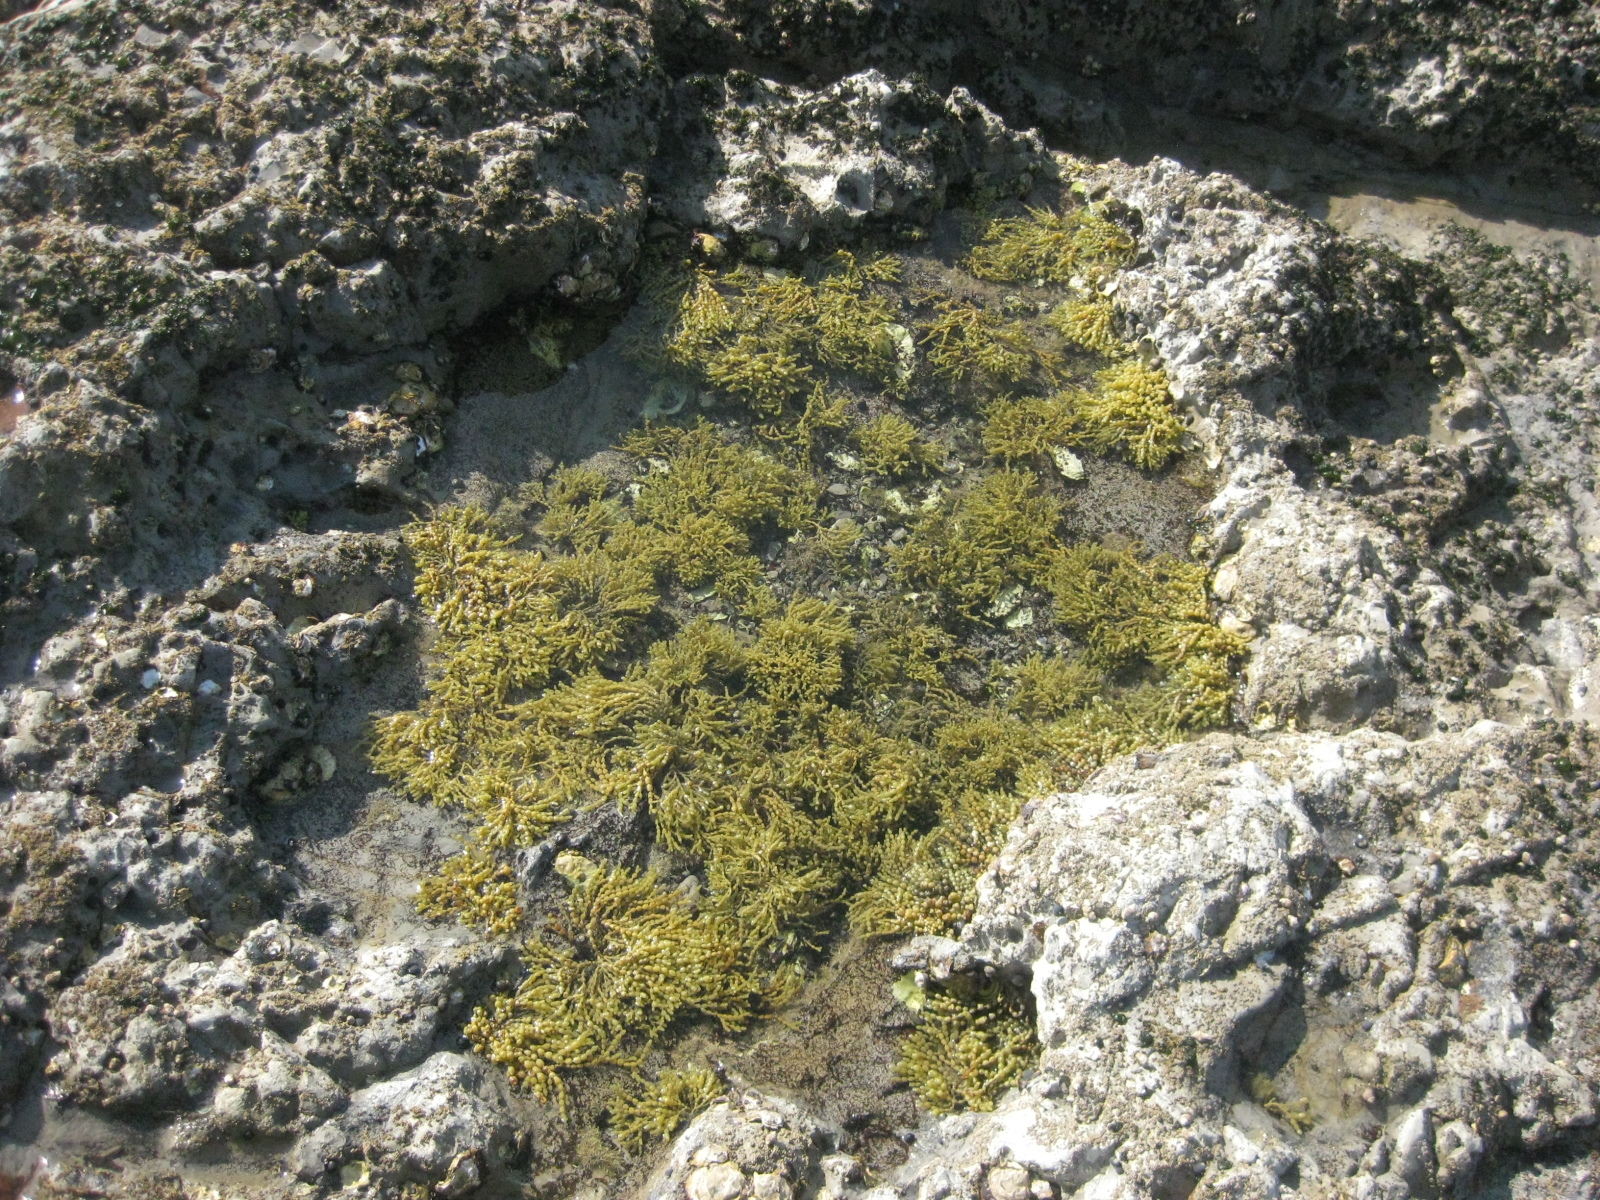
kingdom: Chromista
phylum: Ochrophyta
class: Phaeophyceae
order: Fucales
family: Hormosiraceae
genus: Hormosira
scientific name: Hormosira banksii
